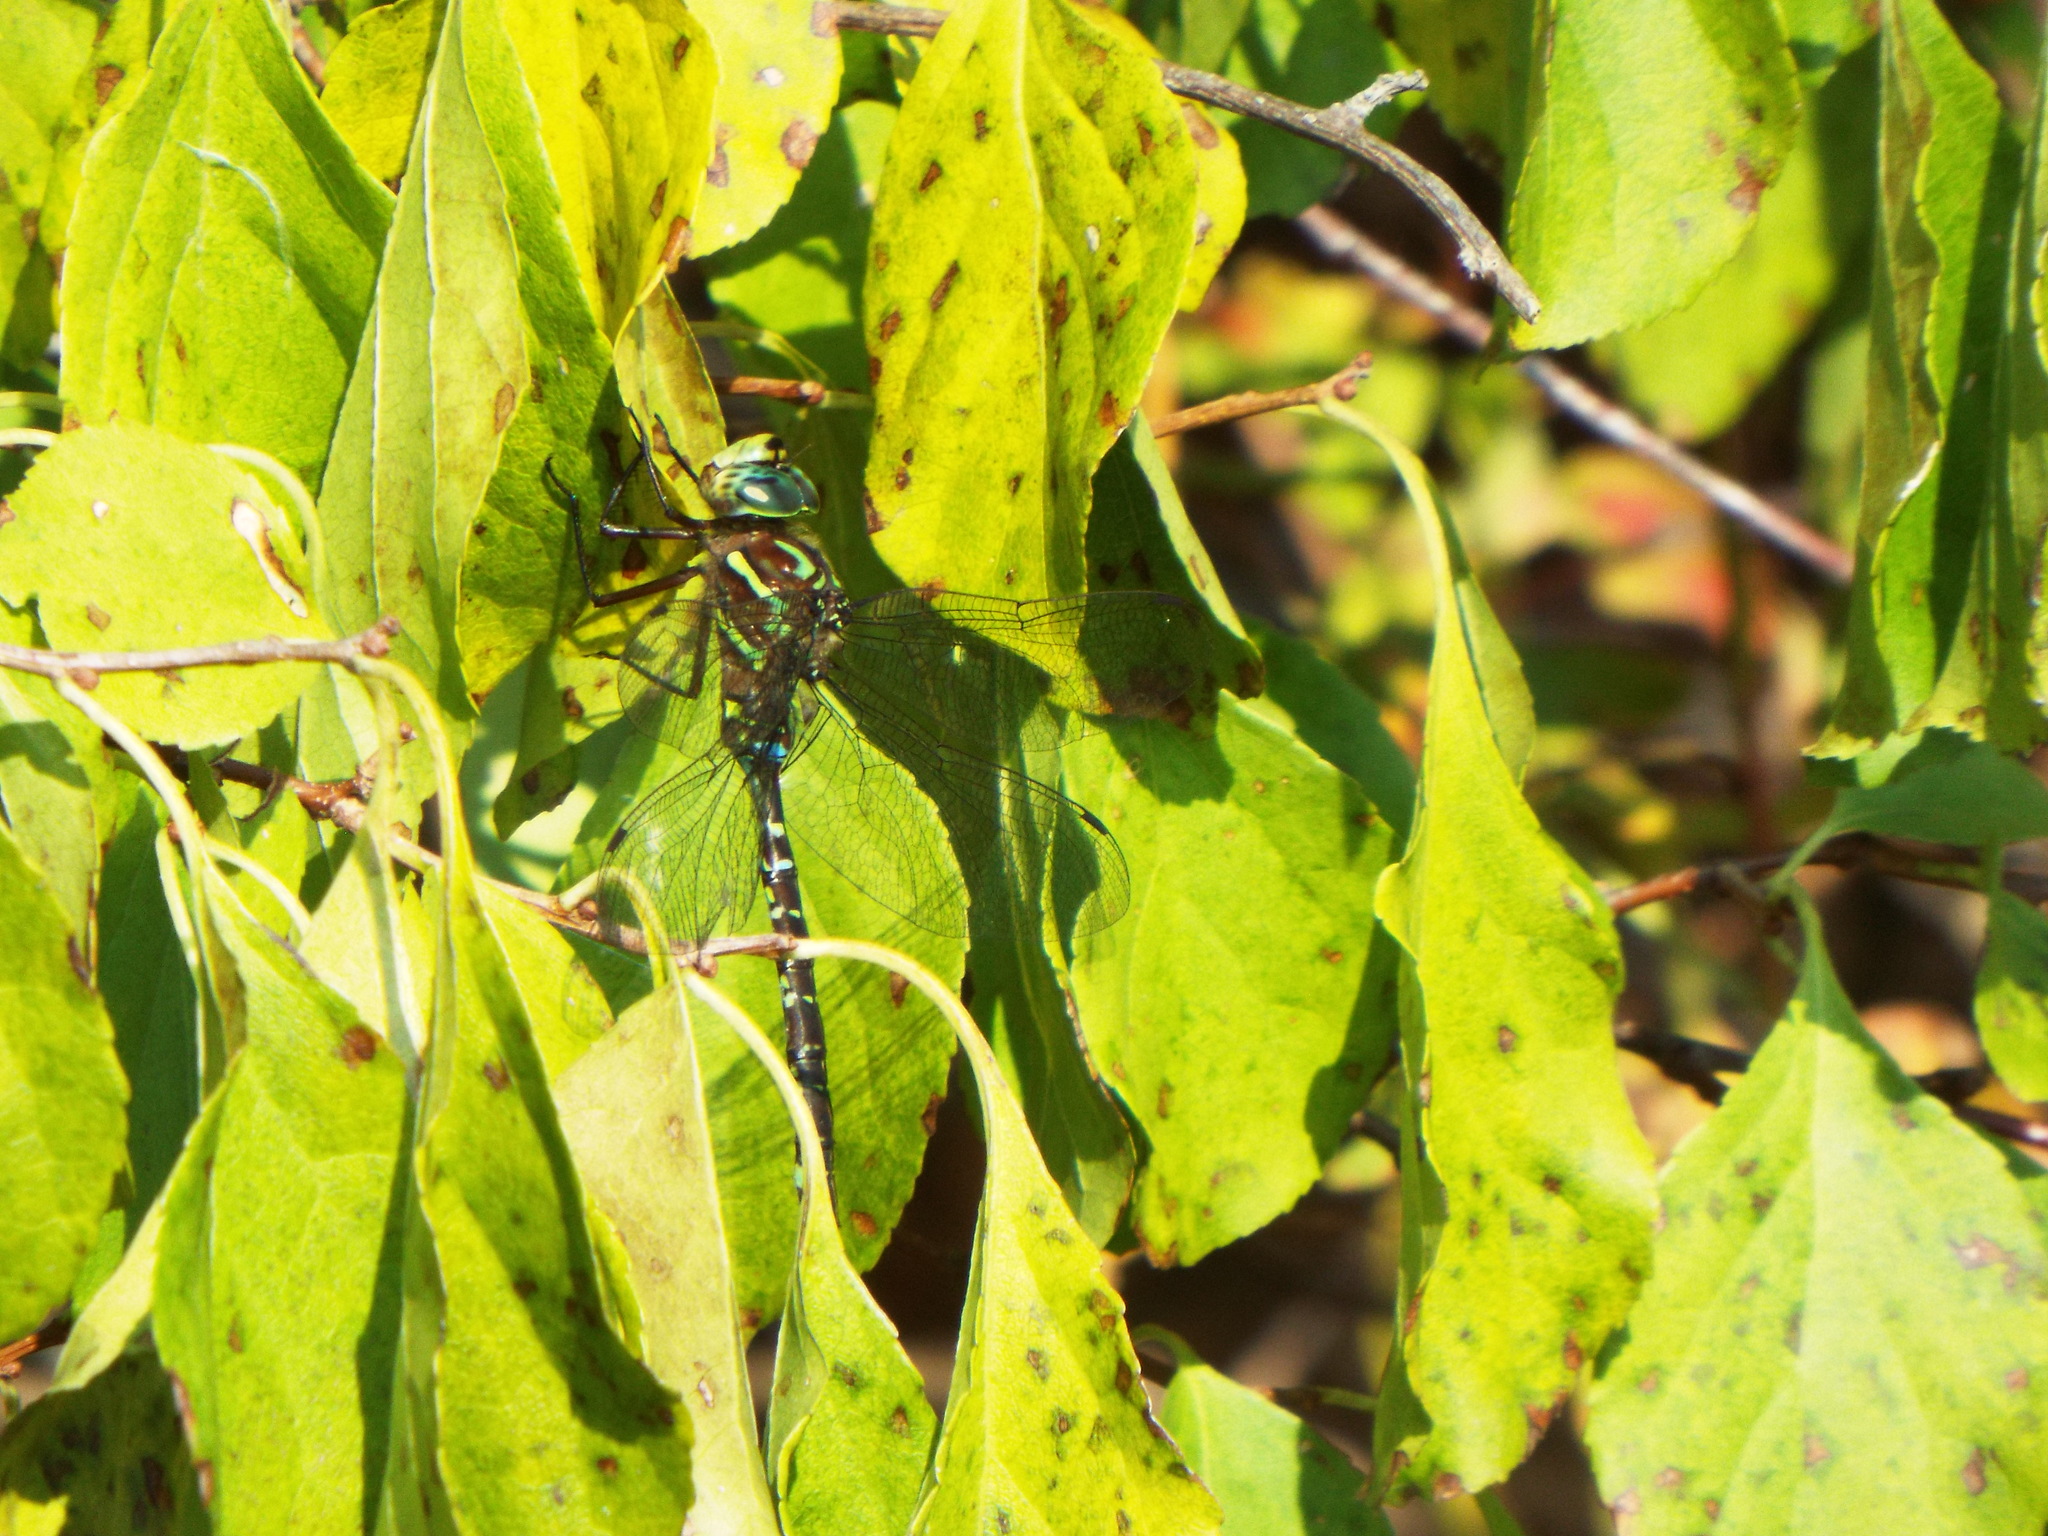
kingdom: Animalia
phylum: Arthropoda
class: Insecta
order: Odonata
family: Aeshnidae
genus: Aeshna
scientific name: Aeshna umbrosa
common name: Shadow darner
